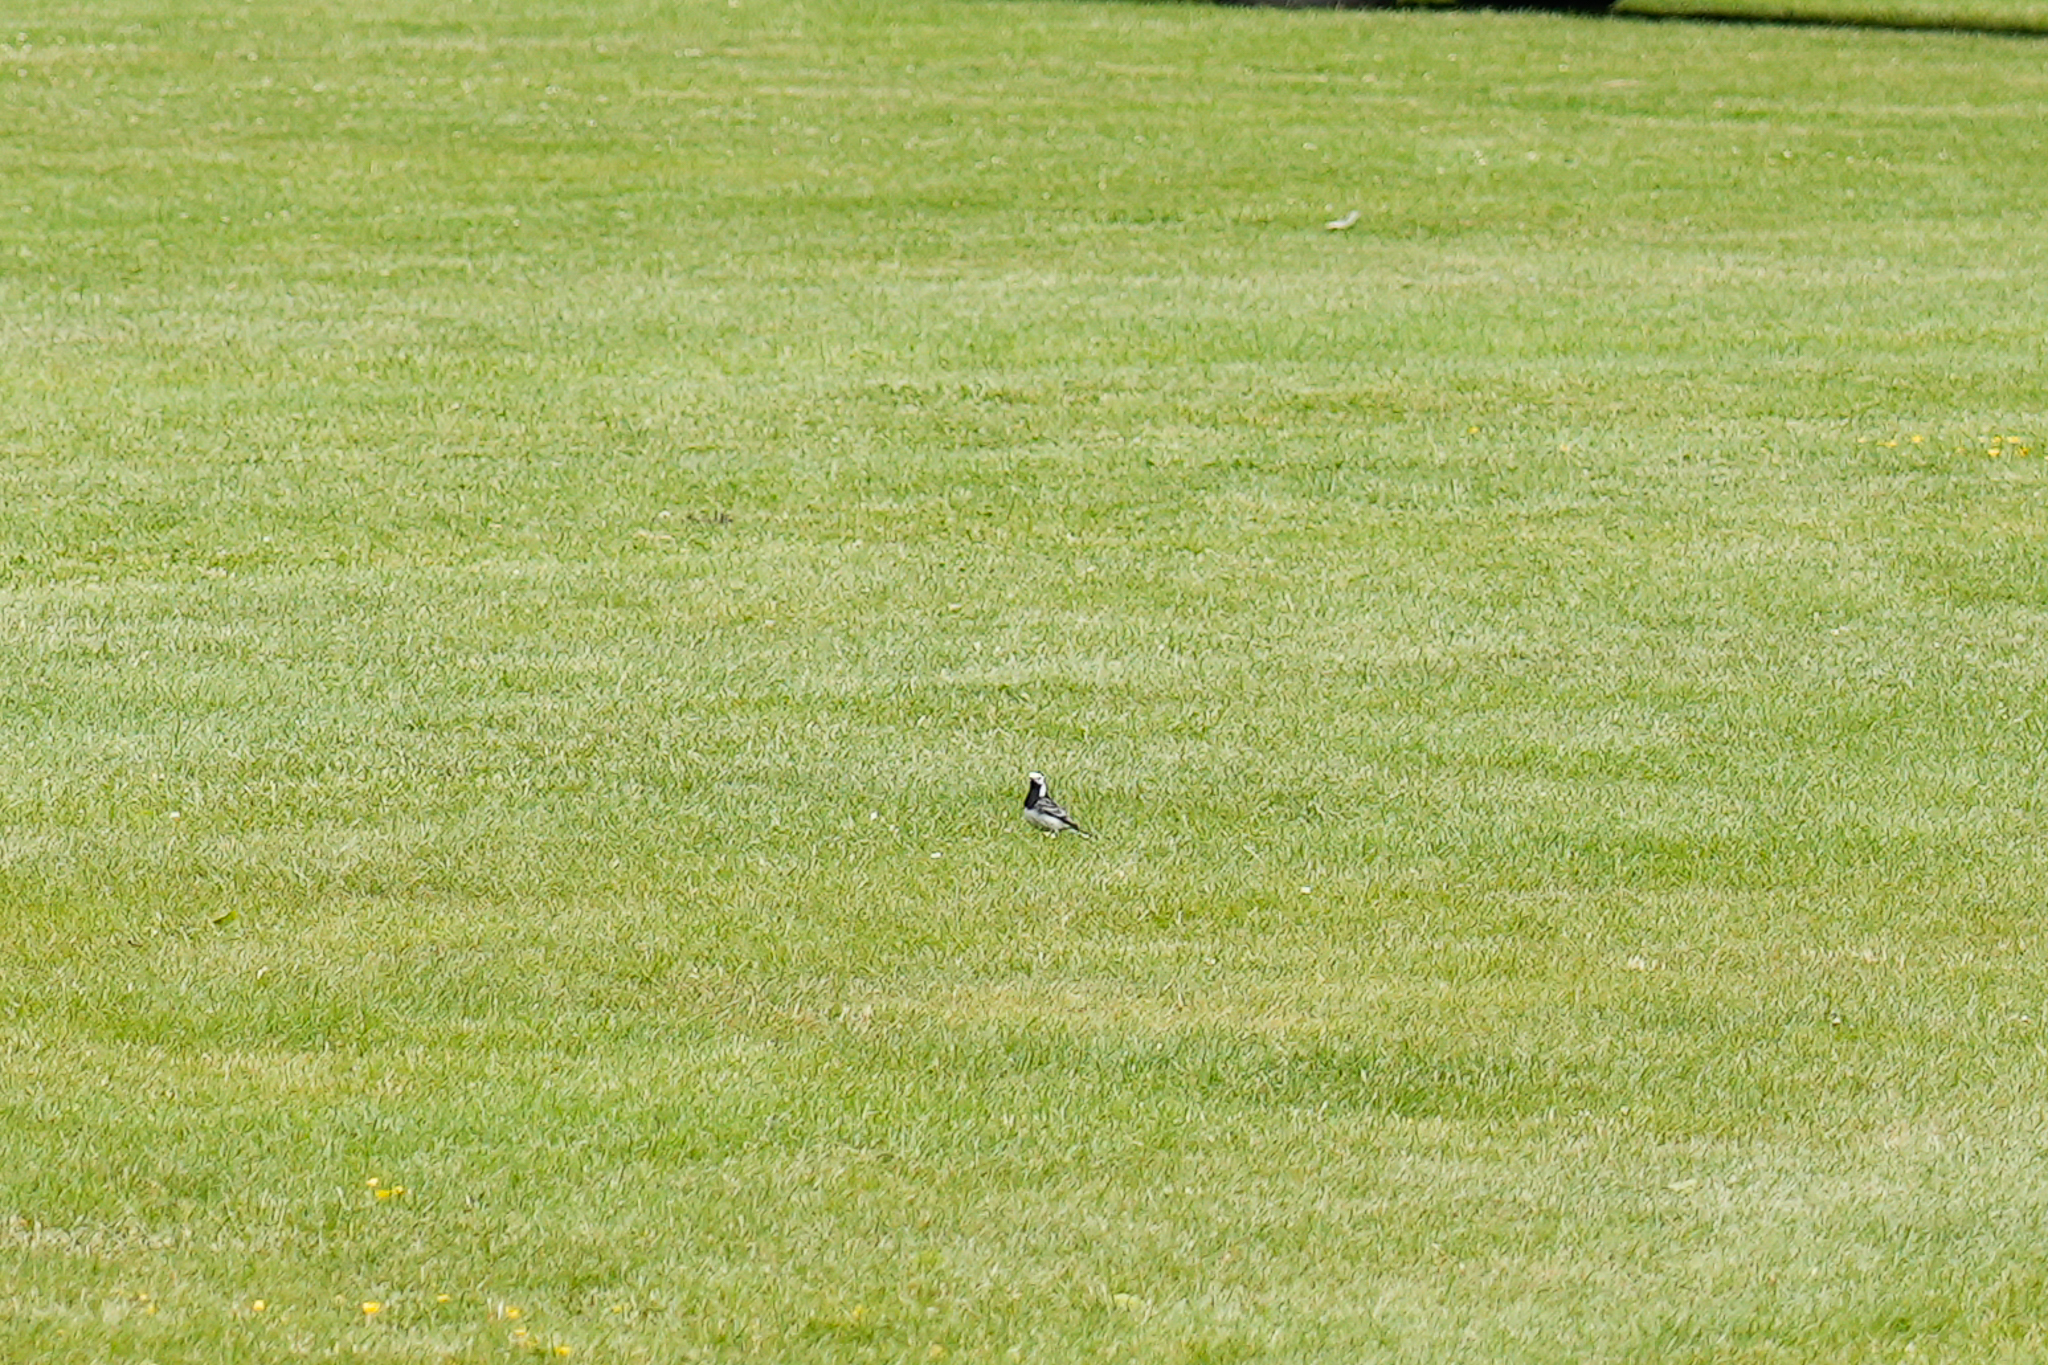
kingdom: Animalia
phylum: Chordata
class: Aves
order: Passeriformes
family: Motacillidae
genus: Motacilla
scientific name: Motacilla alba
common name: White wagtail
